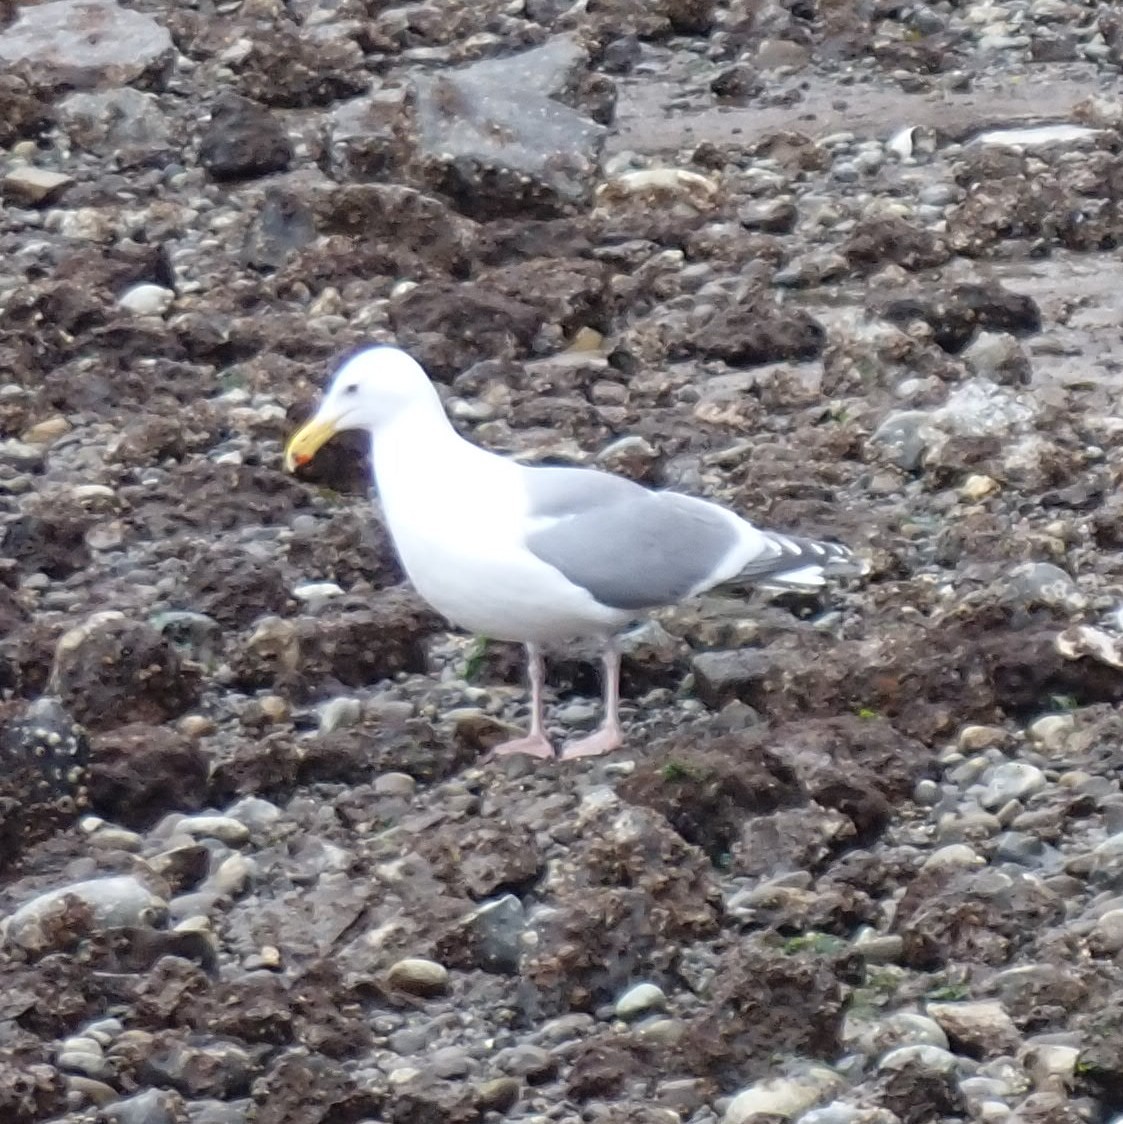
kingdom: Animalia
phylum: Chordata
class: Aves
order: Charadriiformes
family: Laridae
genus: Larus
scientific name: Larus
